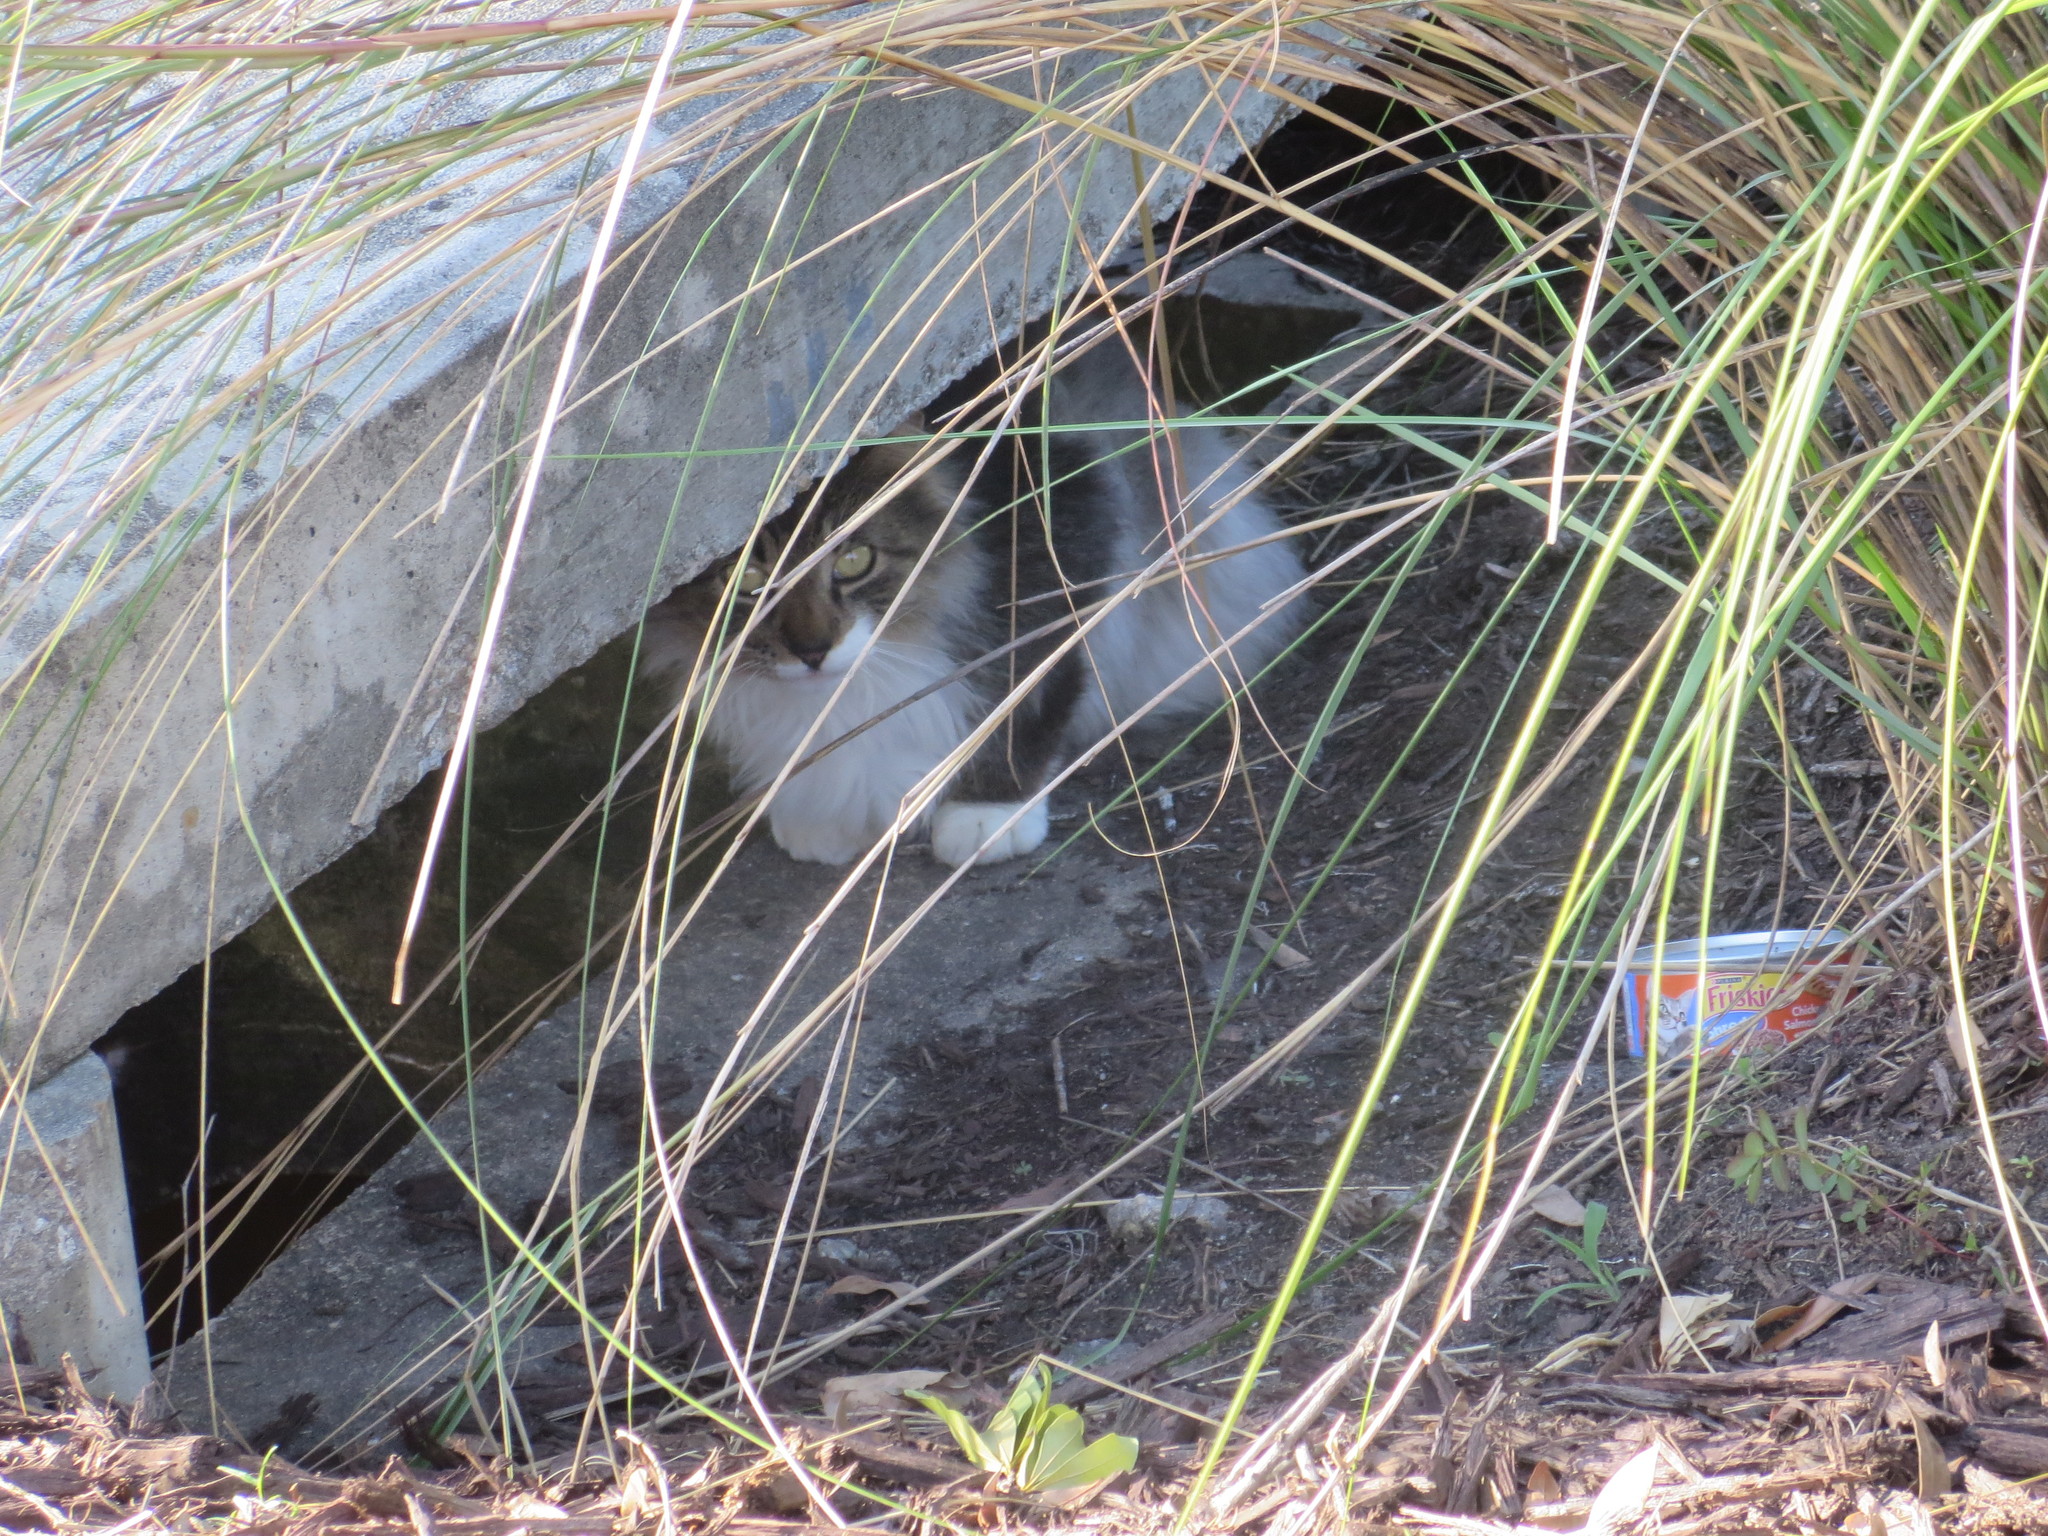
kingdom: Animalia
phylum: Chordata
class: Mammalia
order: Carnivora
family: Felidae
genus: Felis
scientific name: Felis catus
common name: Domestic cat
